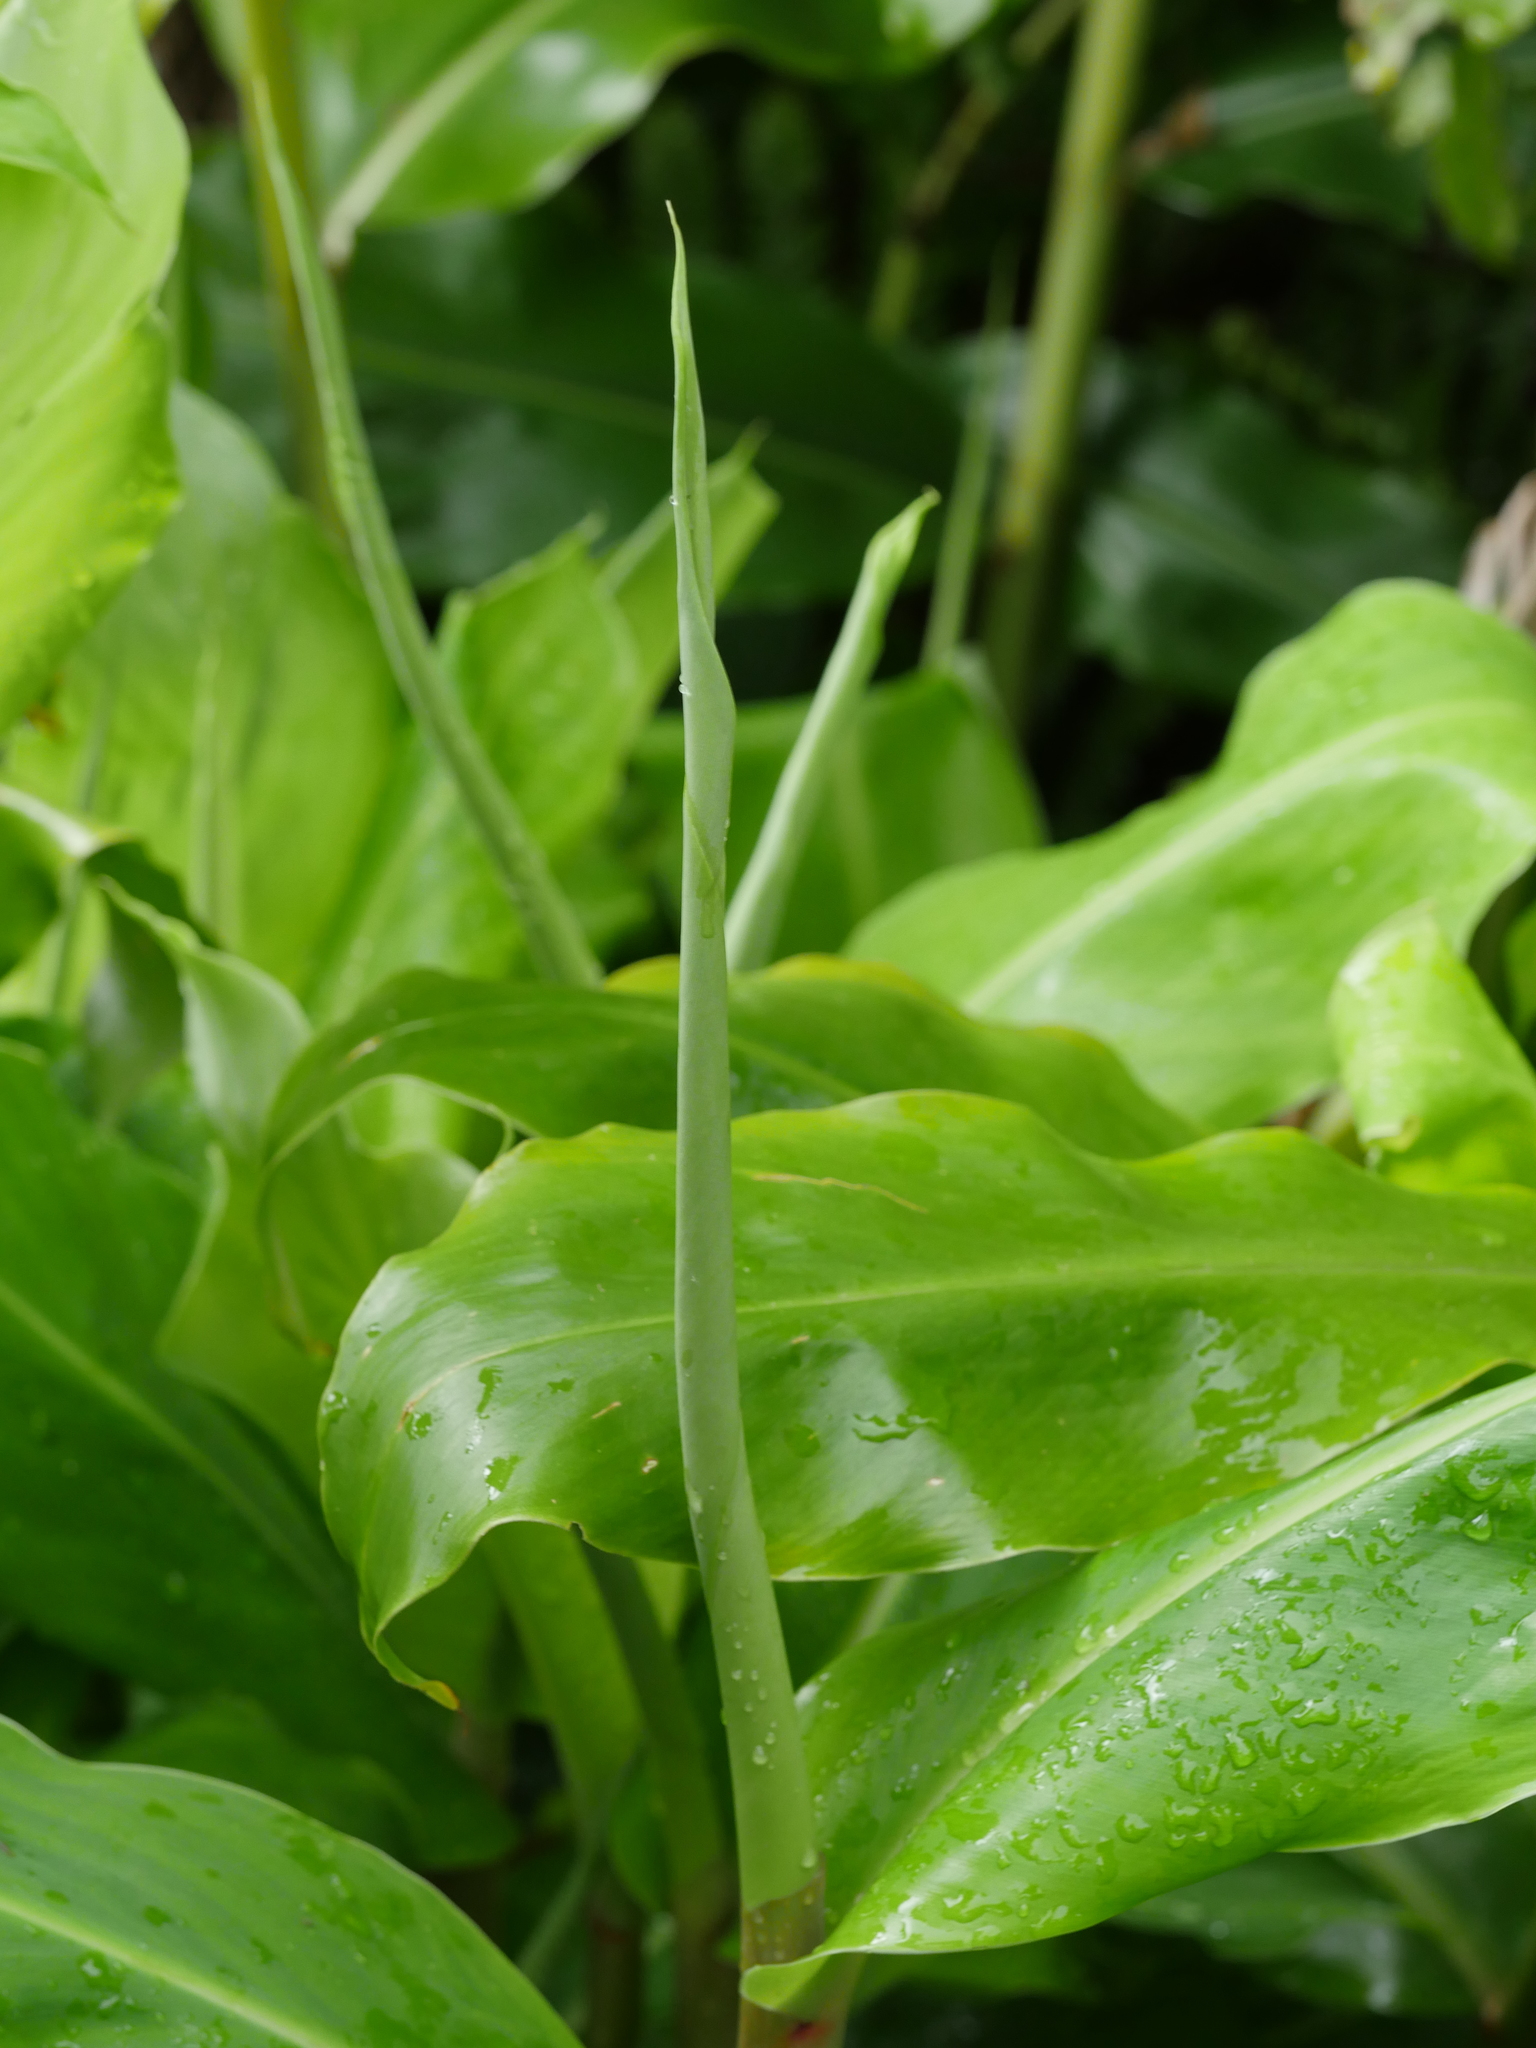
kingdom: Plantae
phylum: Tracheophyta
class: Liliopsida
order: Zingiberales
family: Zingiberaceae
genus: Hedychium
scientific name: Hedychium gardnerianum
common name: Himalayan ginger
